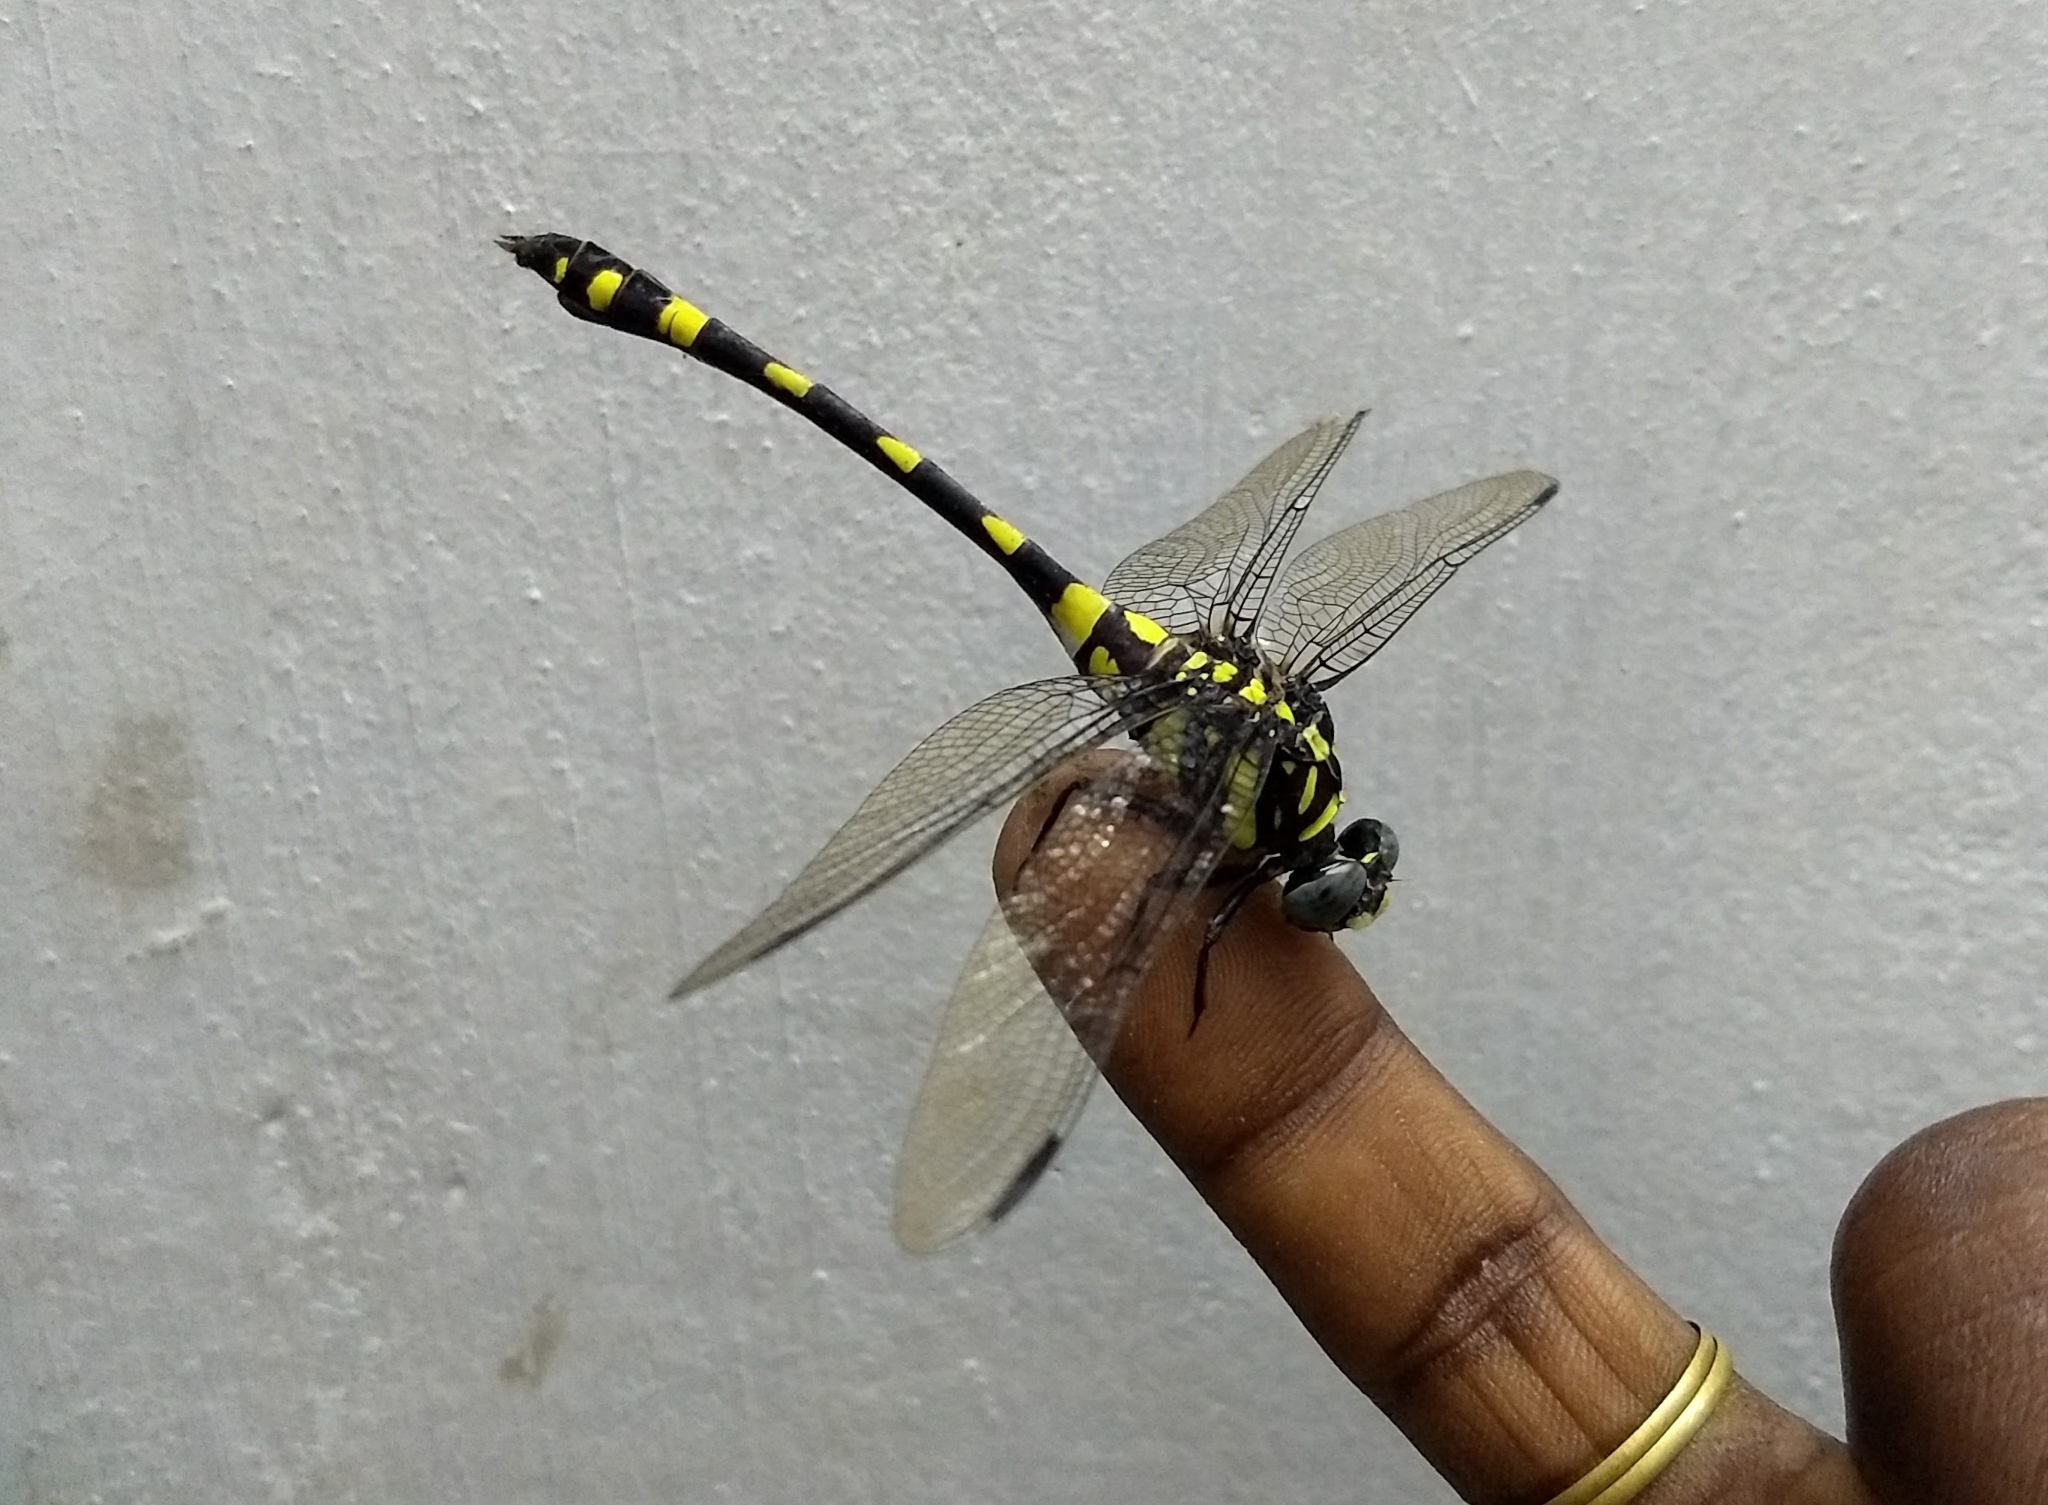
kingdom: Animalia
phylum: Arthropoda
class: Insecta
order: Odonata
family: Gomphidae
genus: Ictinogomphus
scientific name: Ictinogomphus rapax
